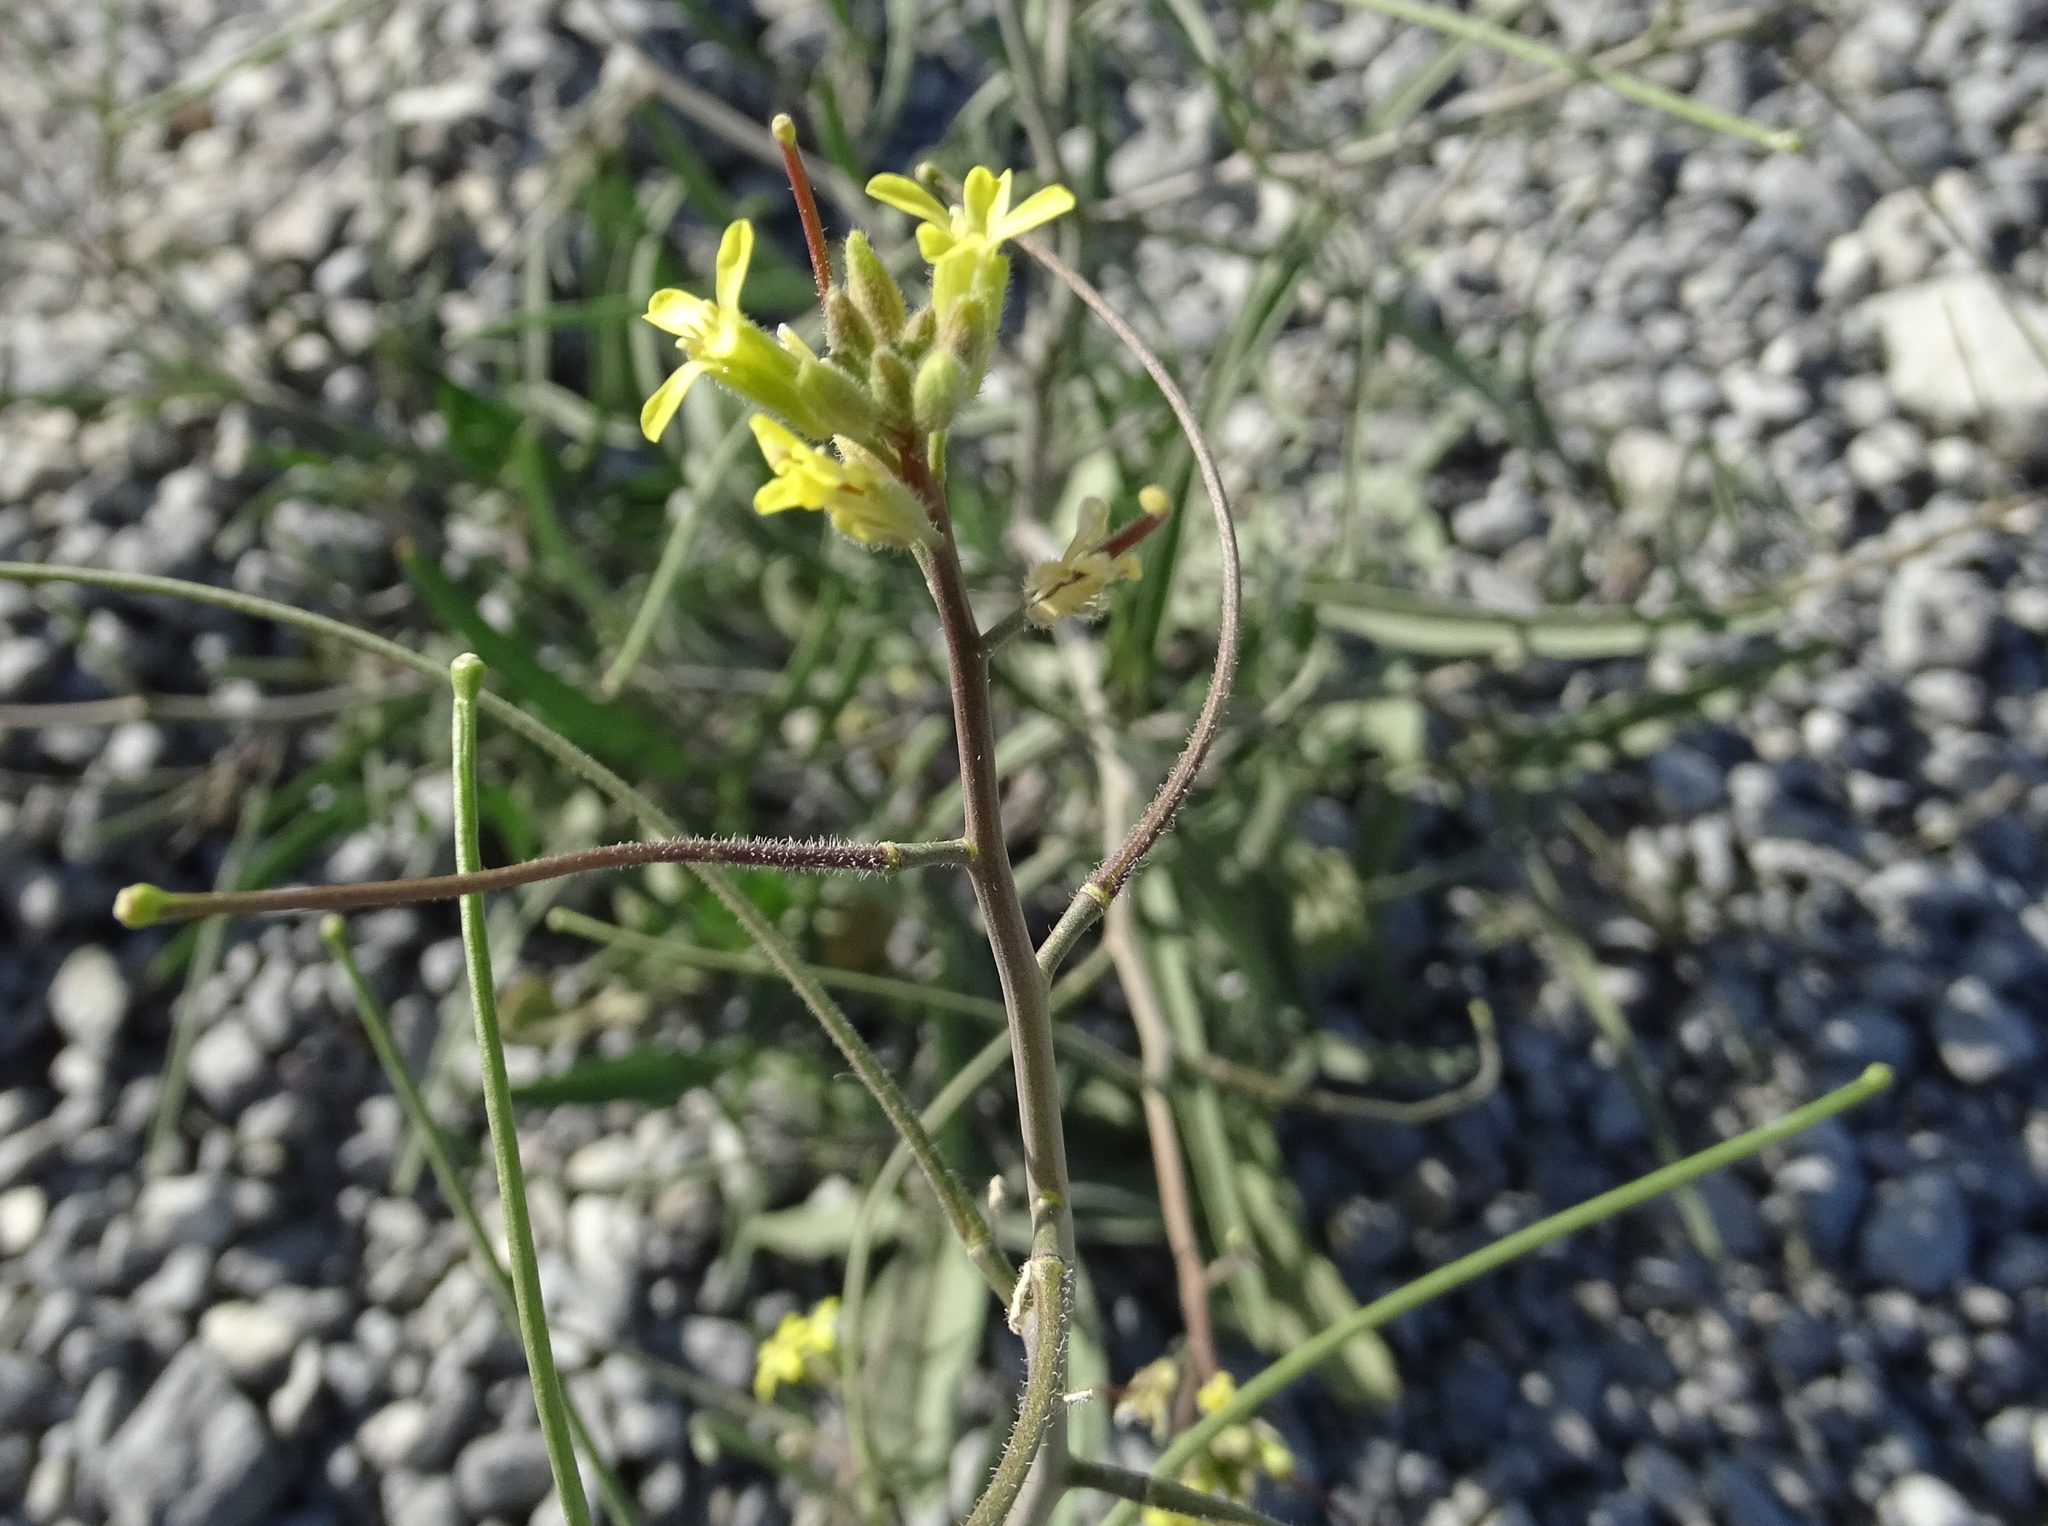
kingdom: Plantae
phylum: Tracheophyta
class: Magnoliopsida
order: Brassicales
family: Brassicaceae
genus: Sisymbrium
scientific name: Sisymbrium orientale
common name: Eastern rocket
